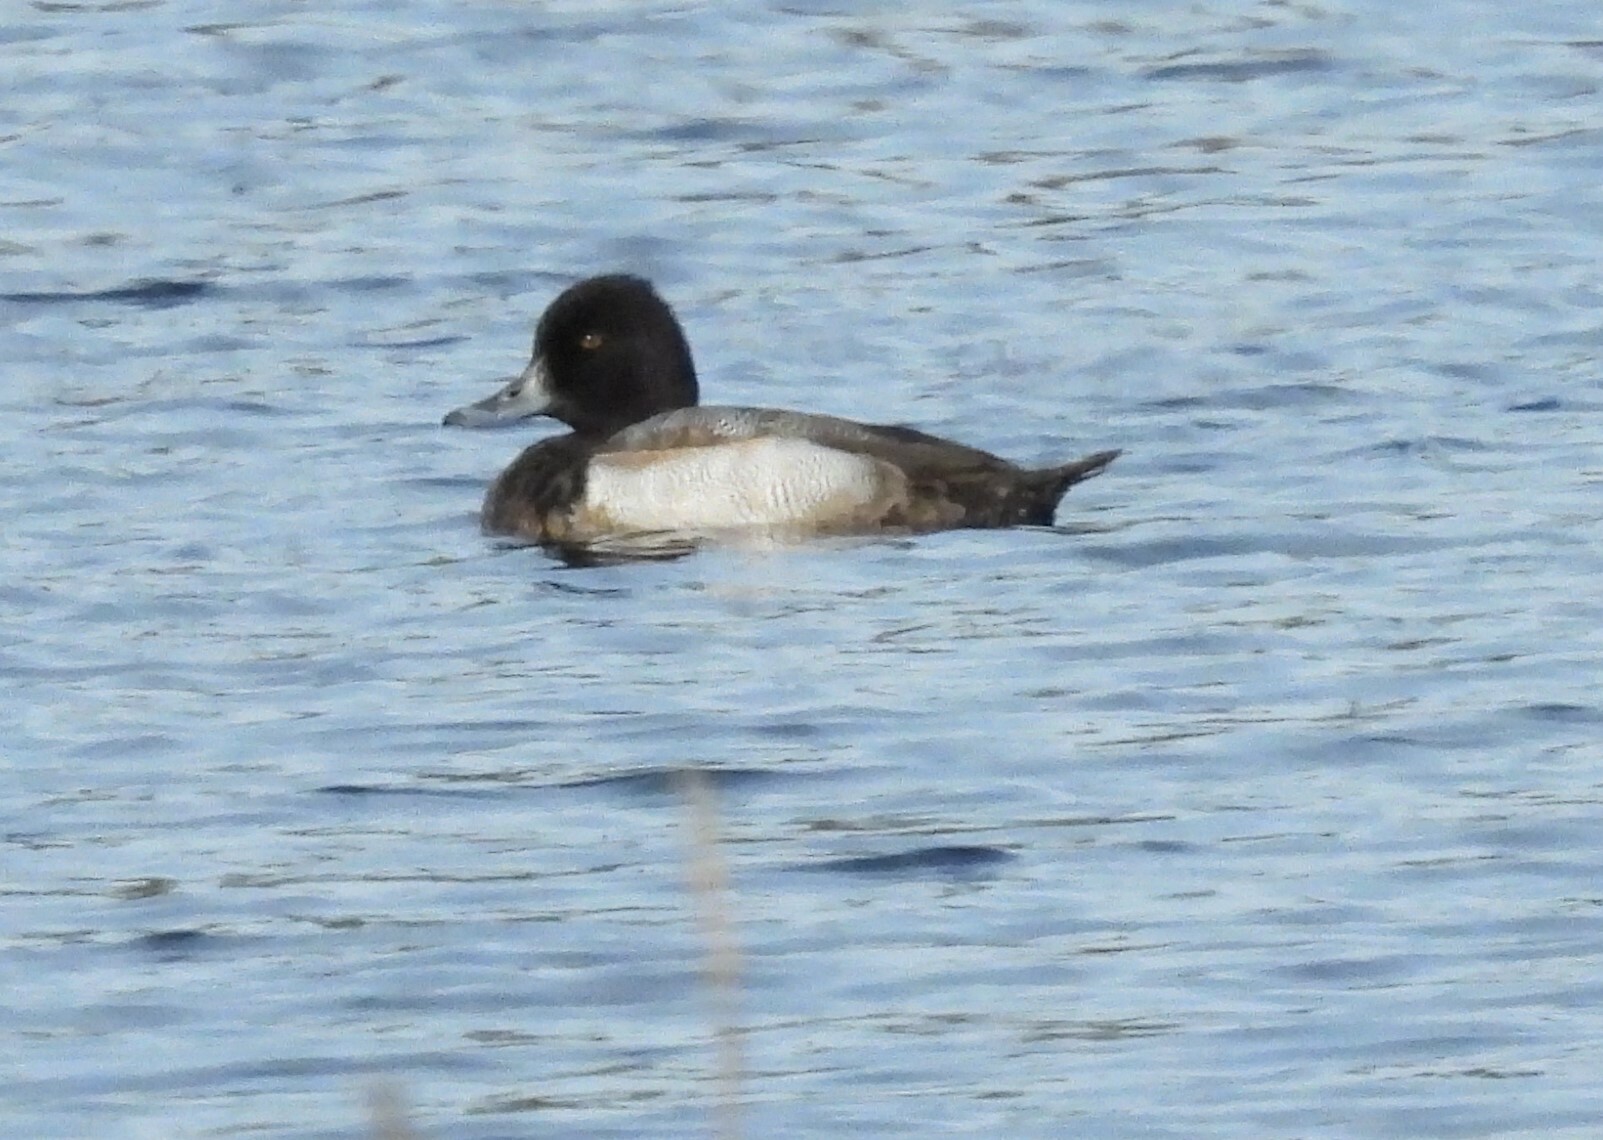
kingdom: Animalia
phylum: Chordata
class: Aves
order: Anseriformes
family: Anatidae
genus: Aythya
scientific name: Aythya affinis
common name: Lesser scaup
